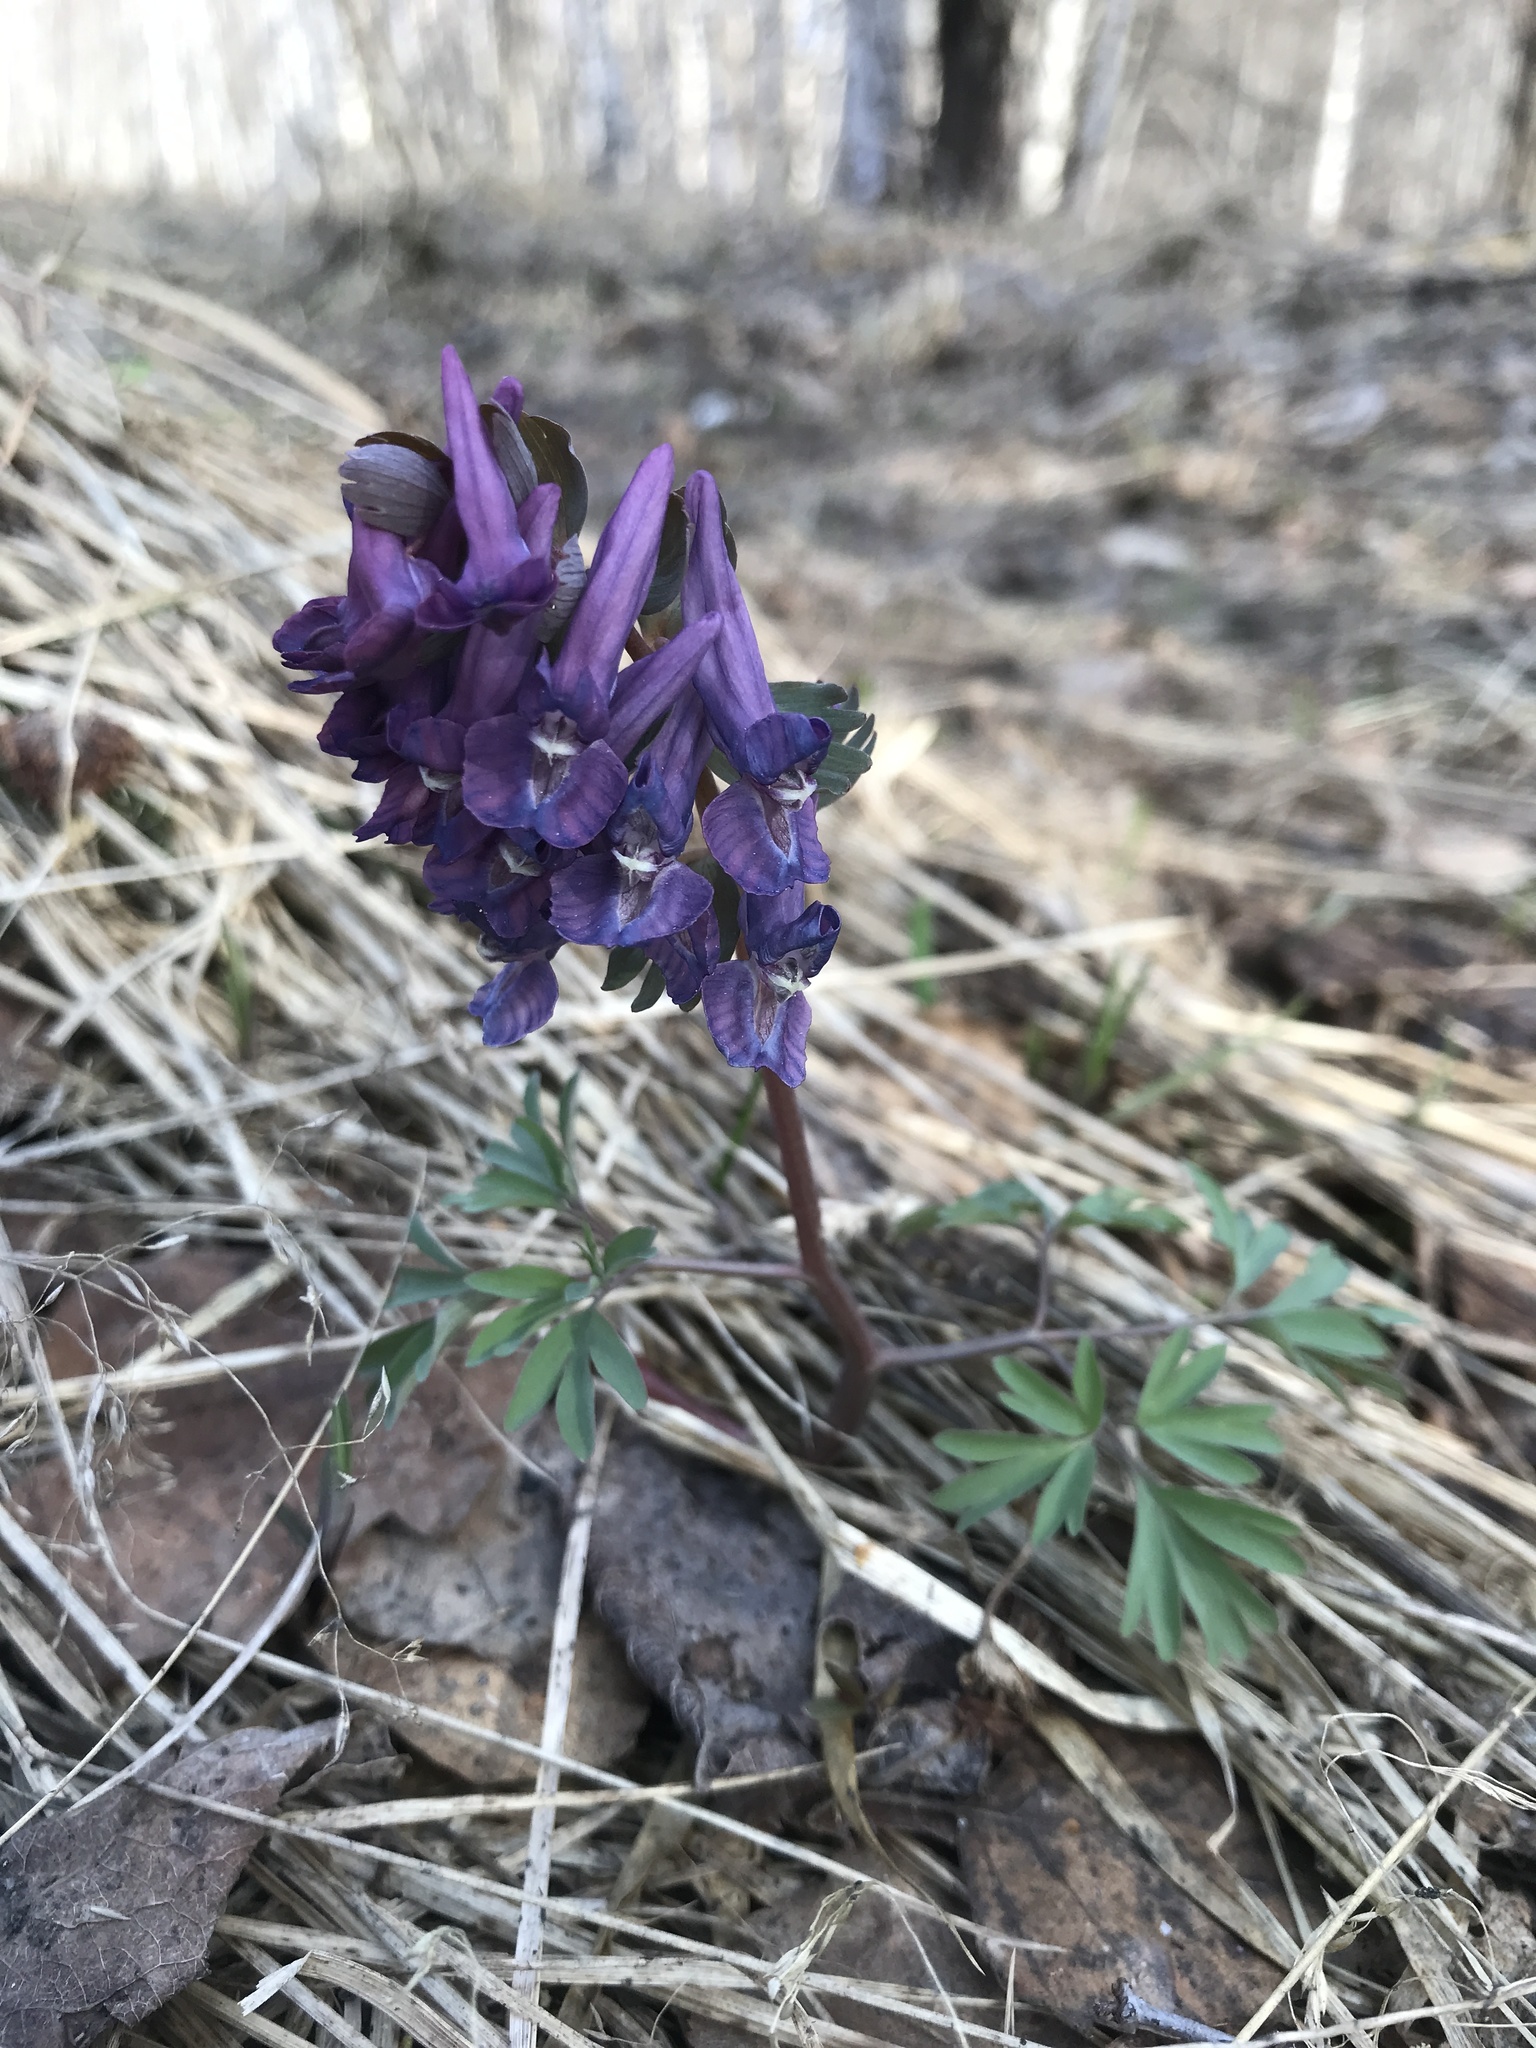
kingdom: Plantae
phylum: Tracheophyta
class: Magnoliopsida
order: Ranunculales
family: Papaveraceae
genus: Corydalis
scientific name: Corydalis solida
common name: Bird-in-a-bush
